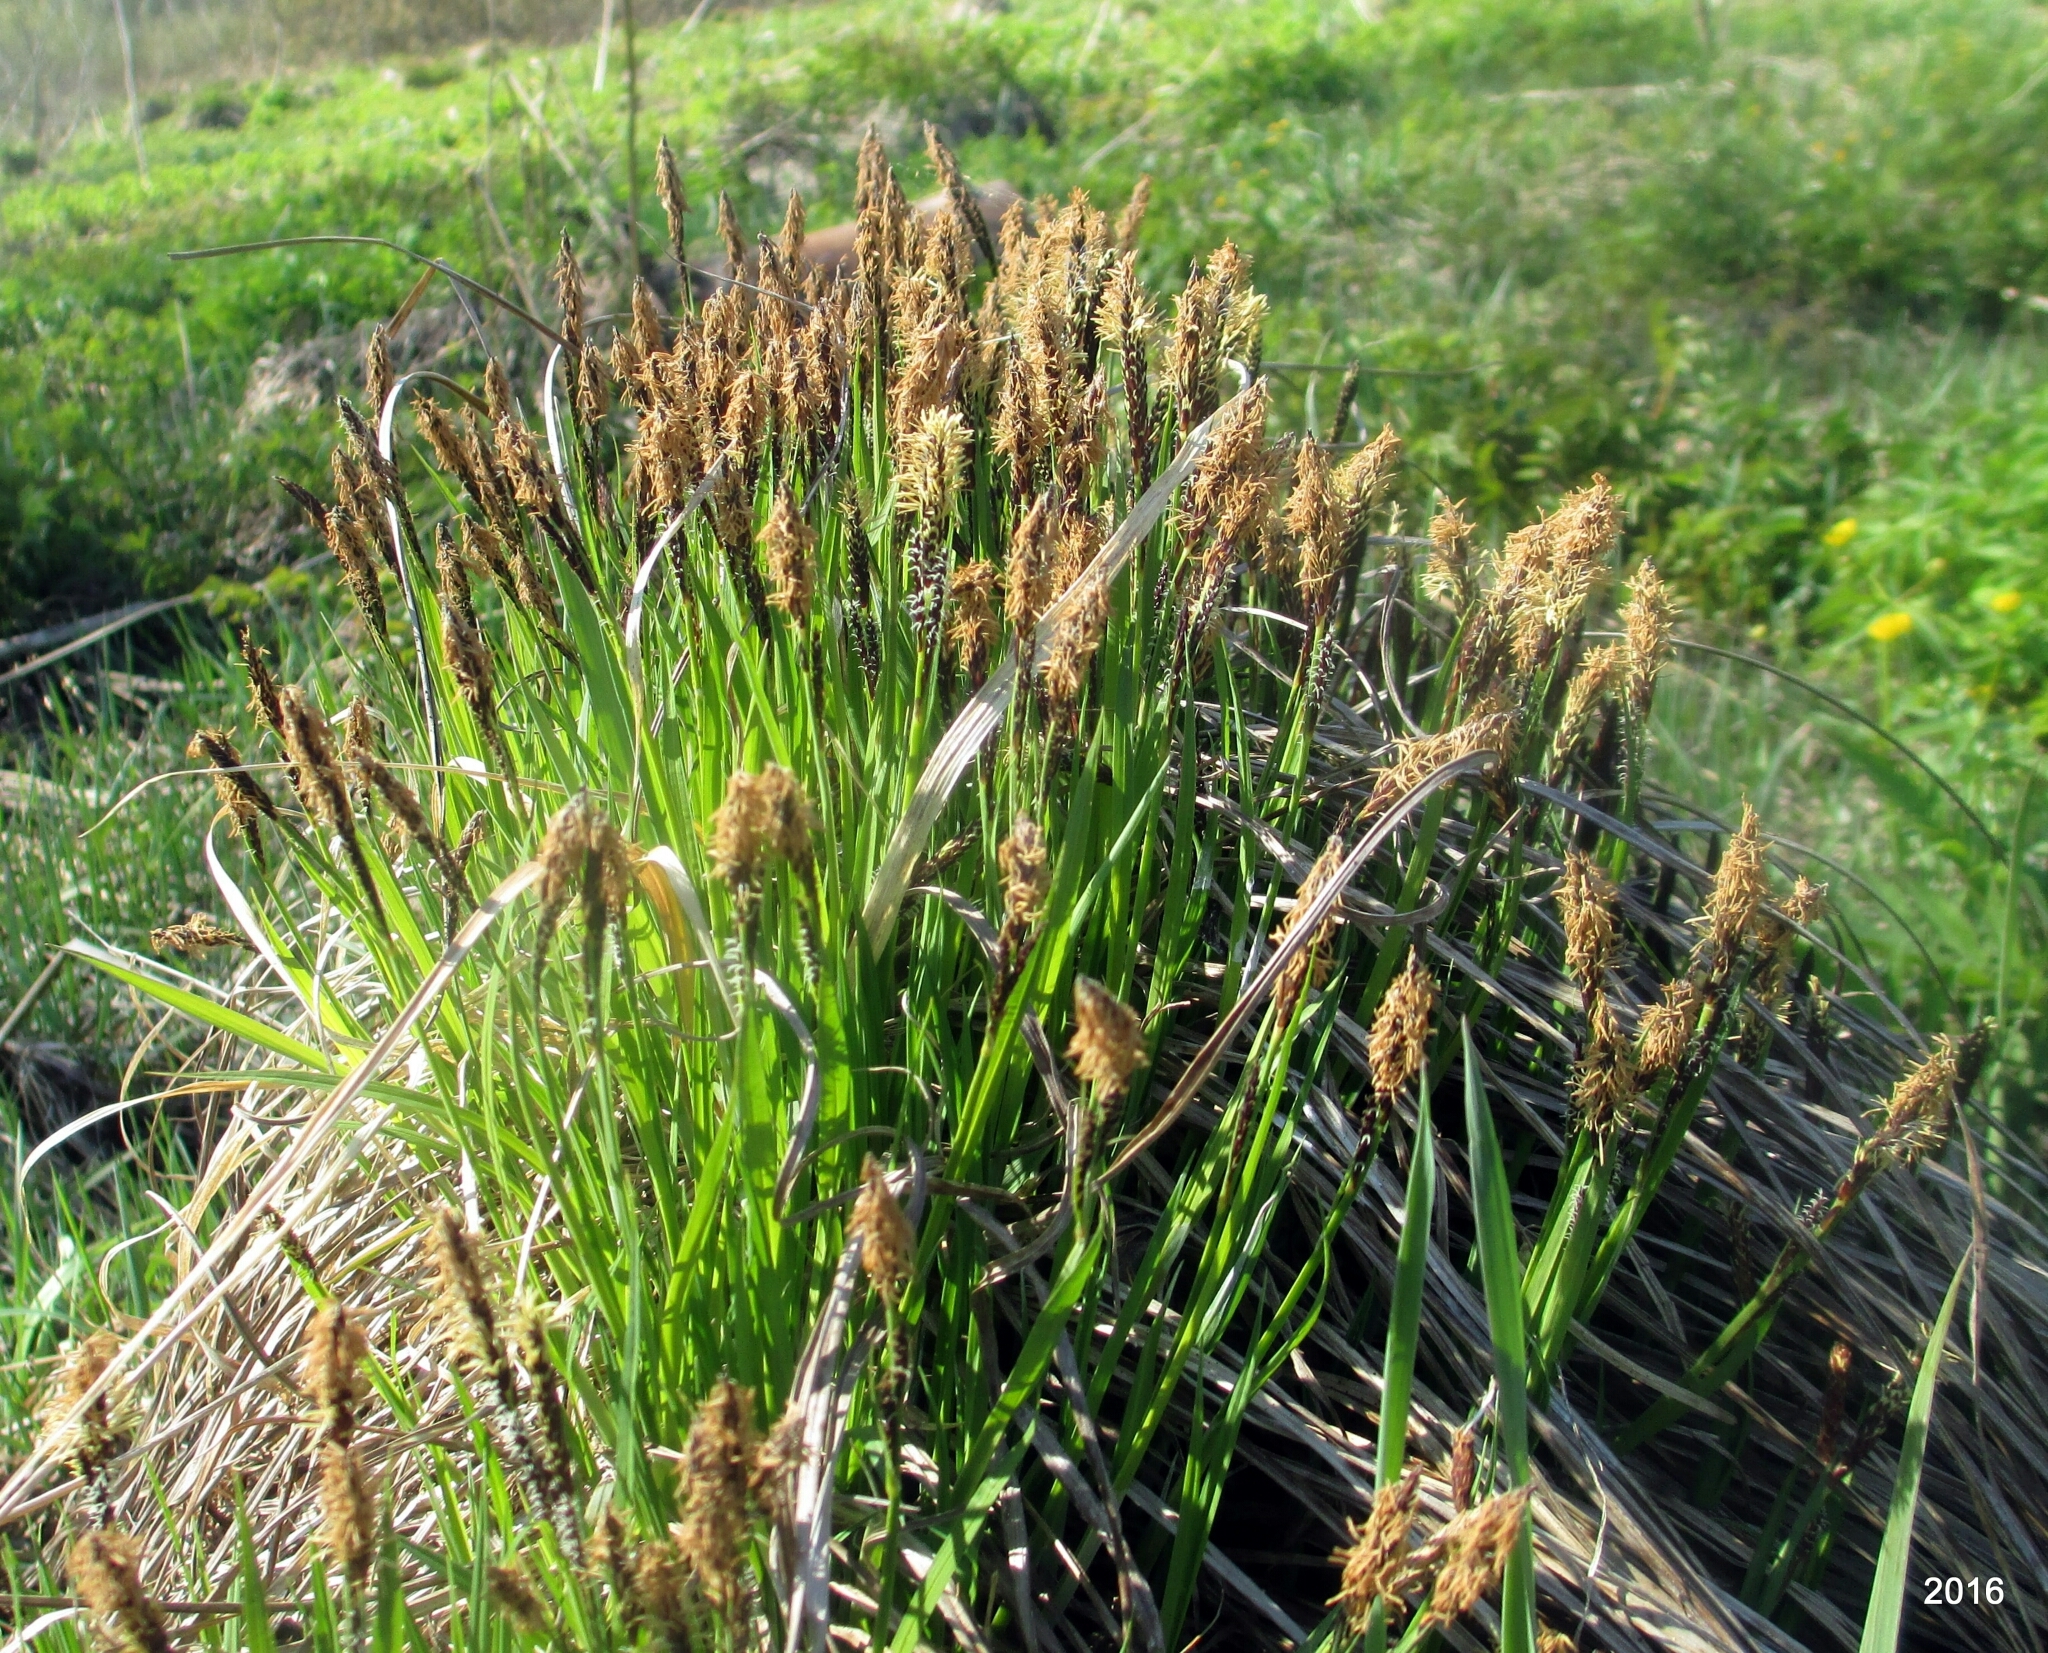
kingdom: Plantae
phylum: Tracheophyta
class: Liliopsida
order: Poales
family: Cyperaceae
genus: Carex
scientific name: Carex cespitosa
